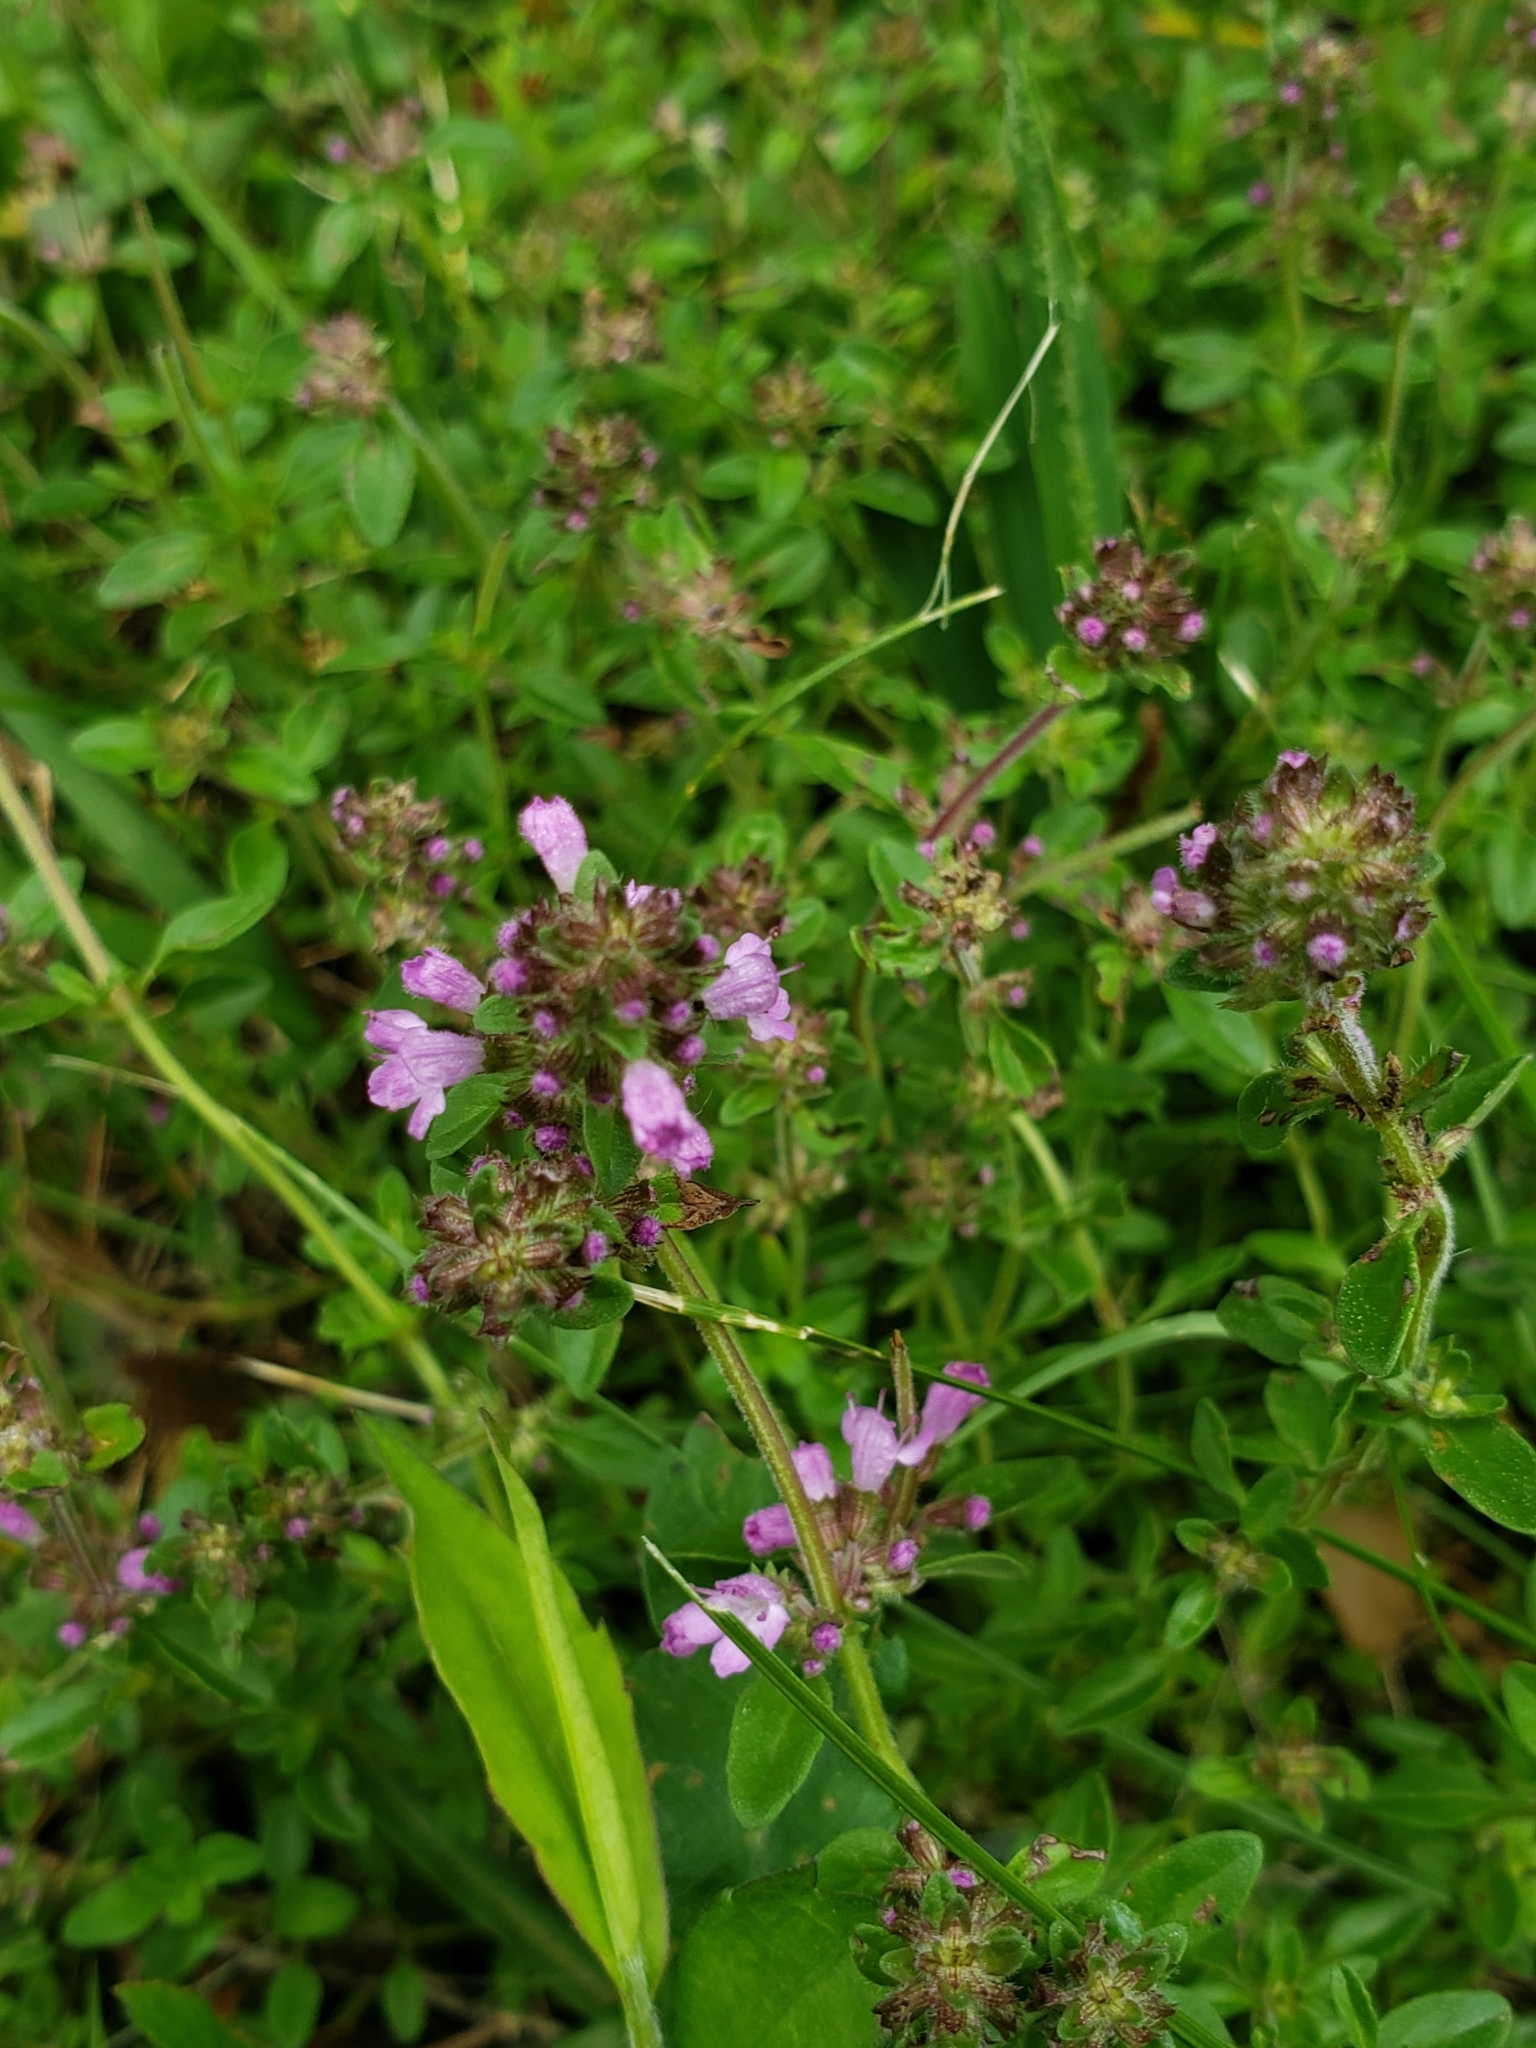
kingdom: Plantae
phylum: Tracheophyta
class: Magnoliopsida
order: Lamiales
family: Lamiaceae
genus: Thymus
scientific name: Thymus pulegioides
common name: Large thyme
